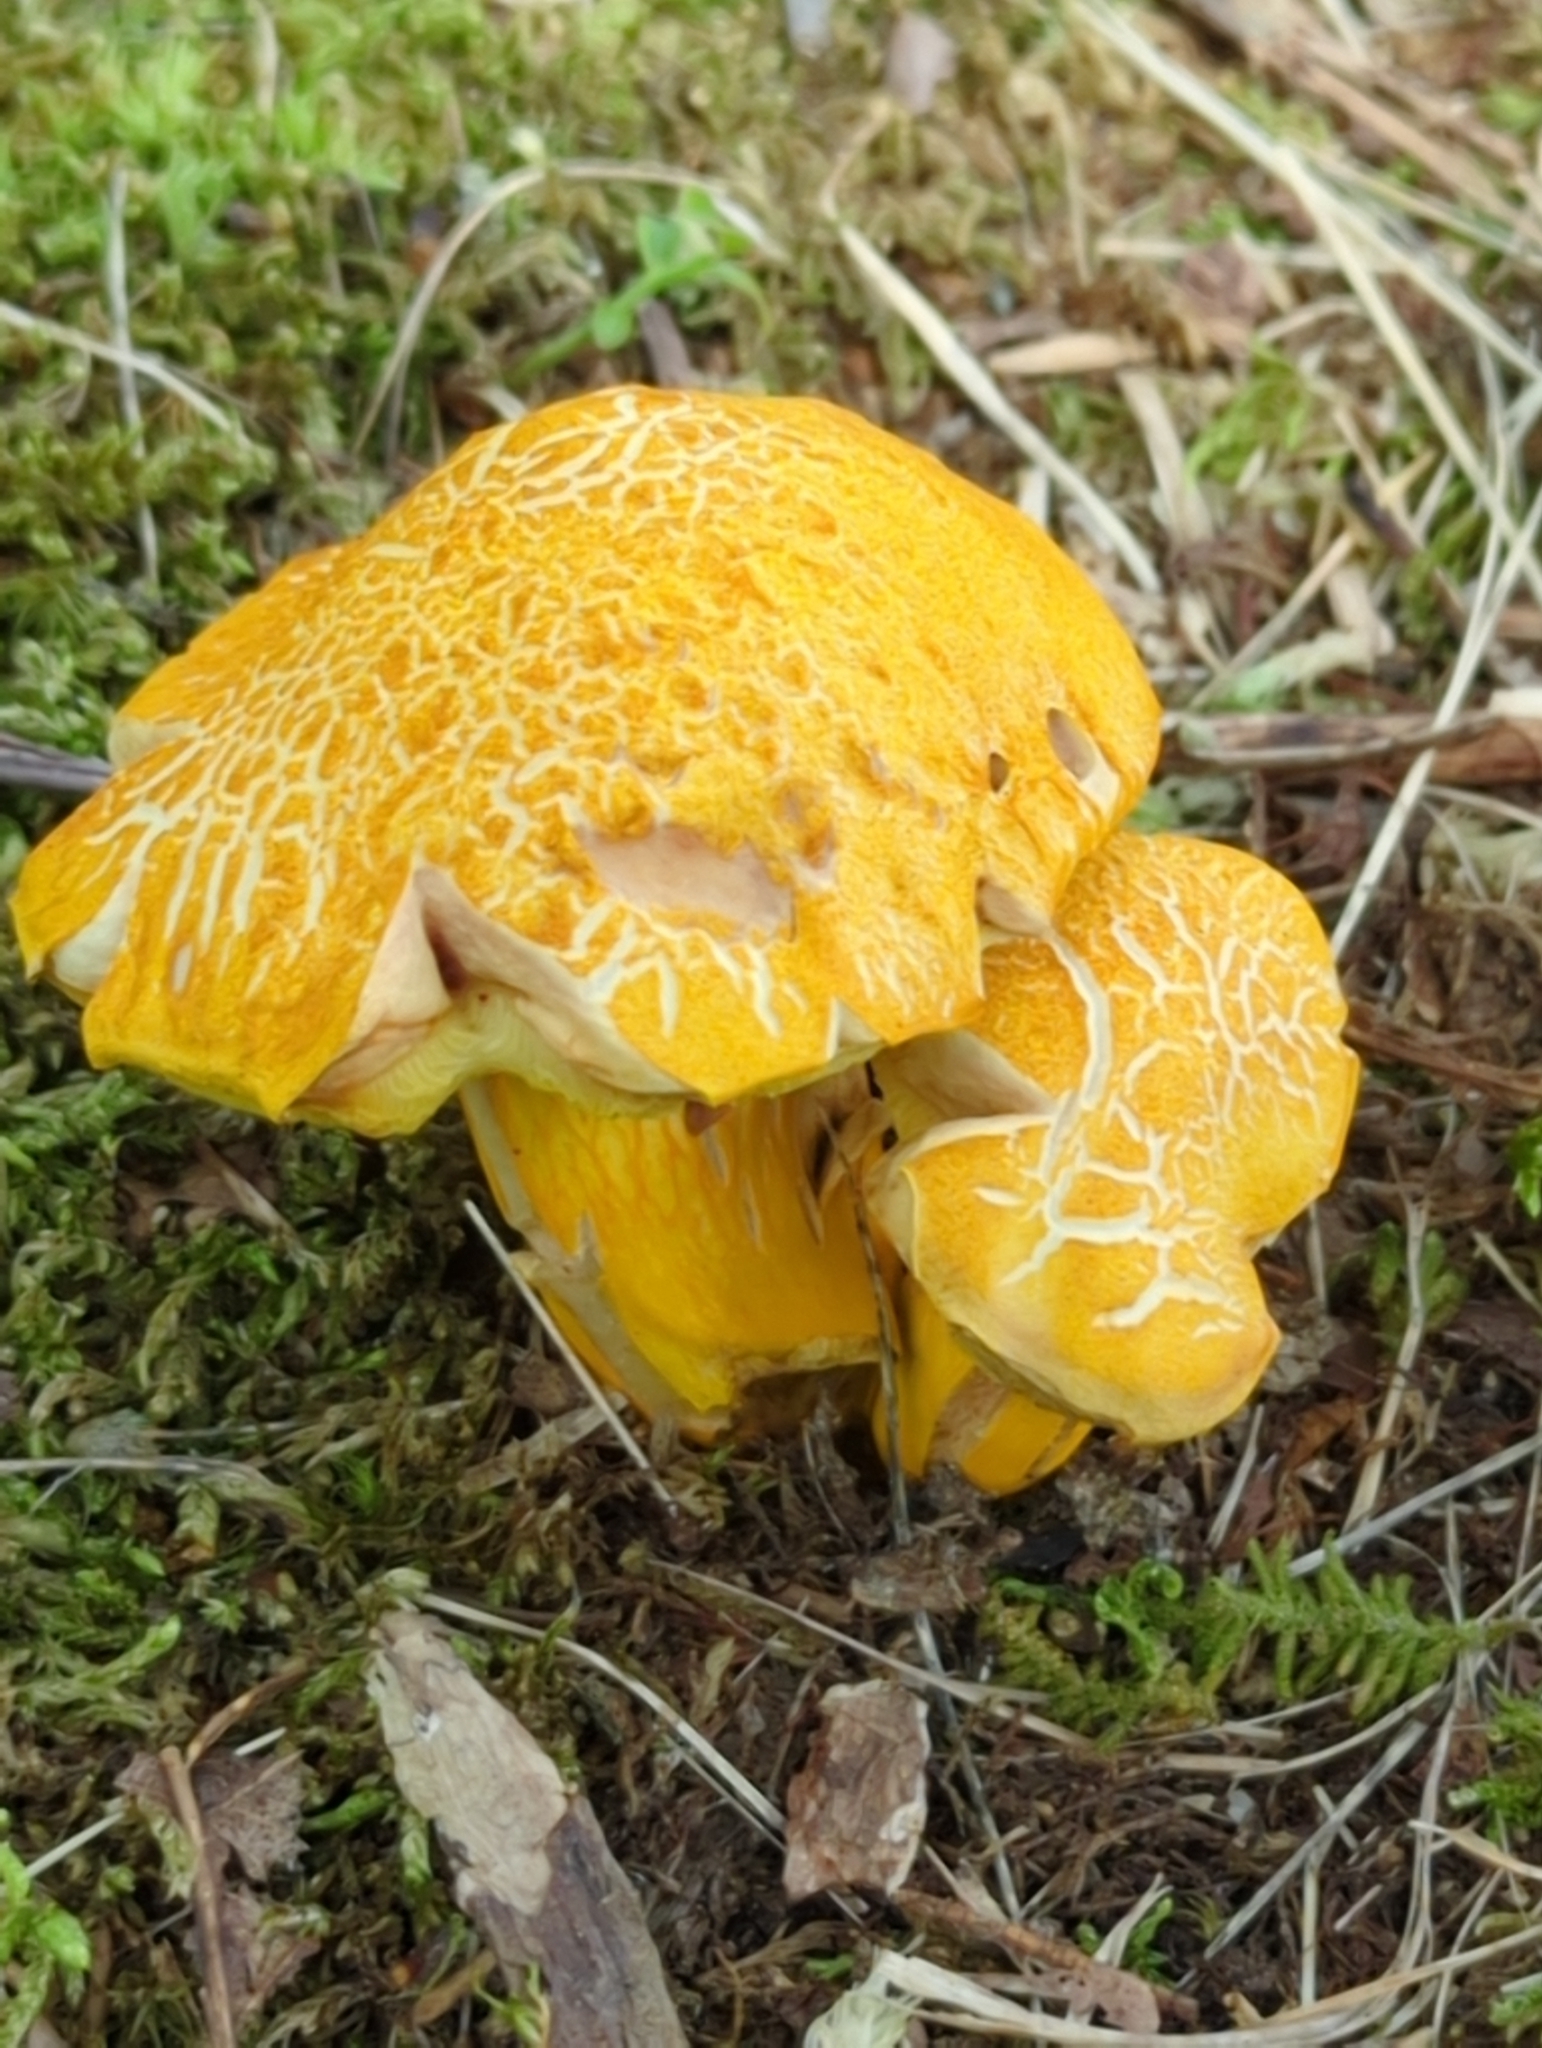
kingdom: Fungi
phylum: Basidiomycota
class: Agaricomycetes
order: Boletales
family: Boletaceae
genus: Aureoboletus
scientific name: Aureoboletus auriflammeus
